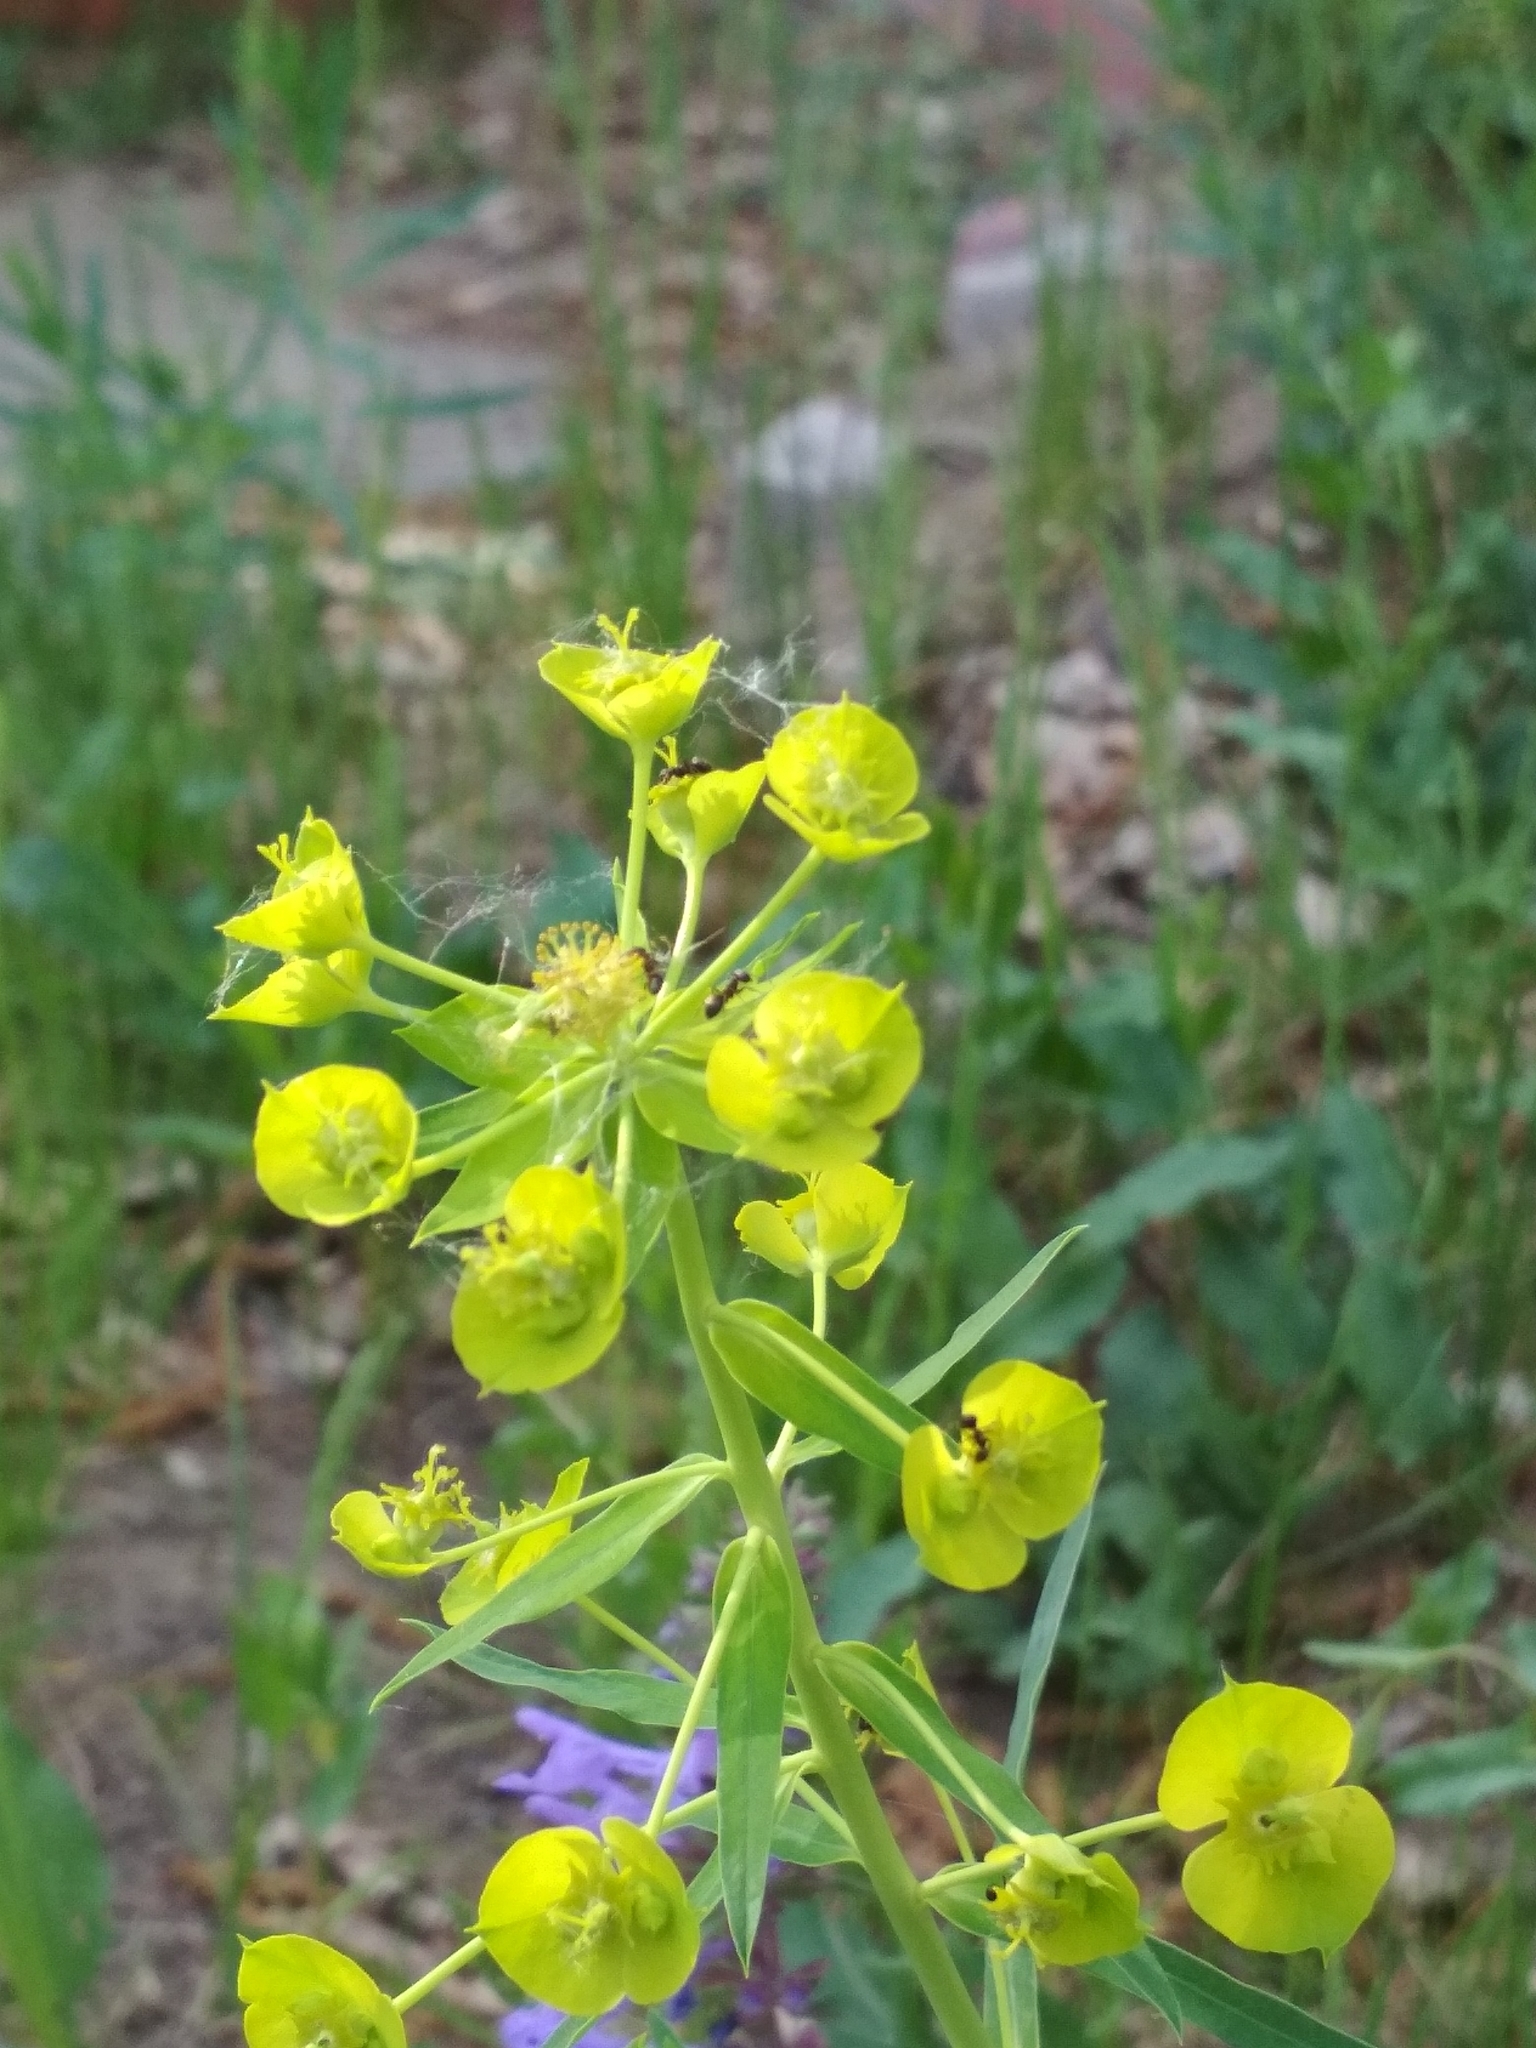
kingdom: Plantae
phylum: Tracheophyta
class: Magnoliopsida
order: Malpighiales
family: Euphorbiaceae
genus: Euphorbia
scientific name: Euphorbia virgata
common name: Leafy spurge
